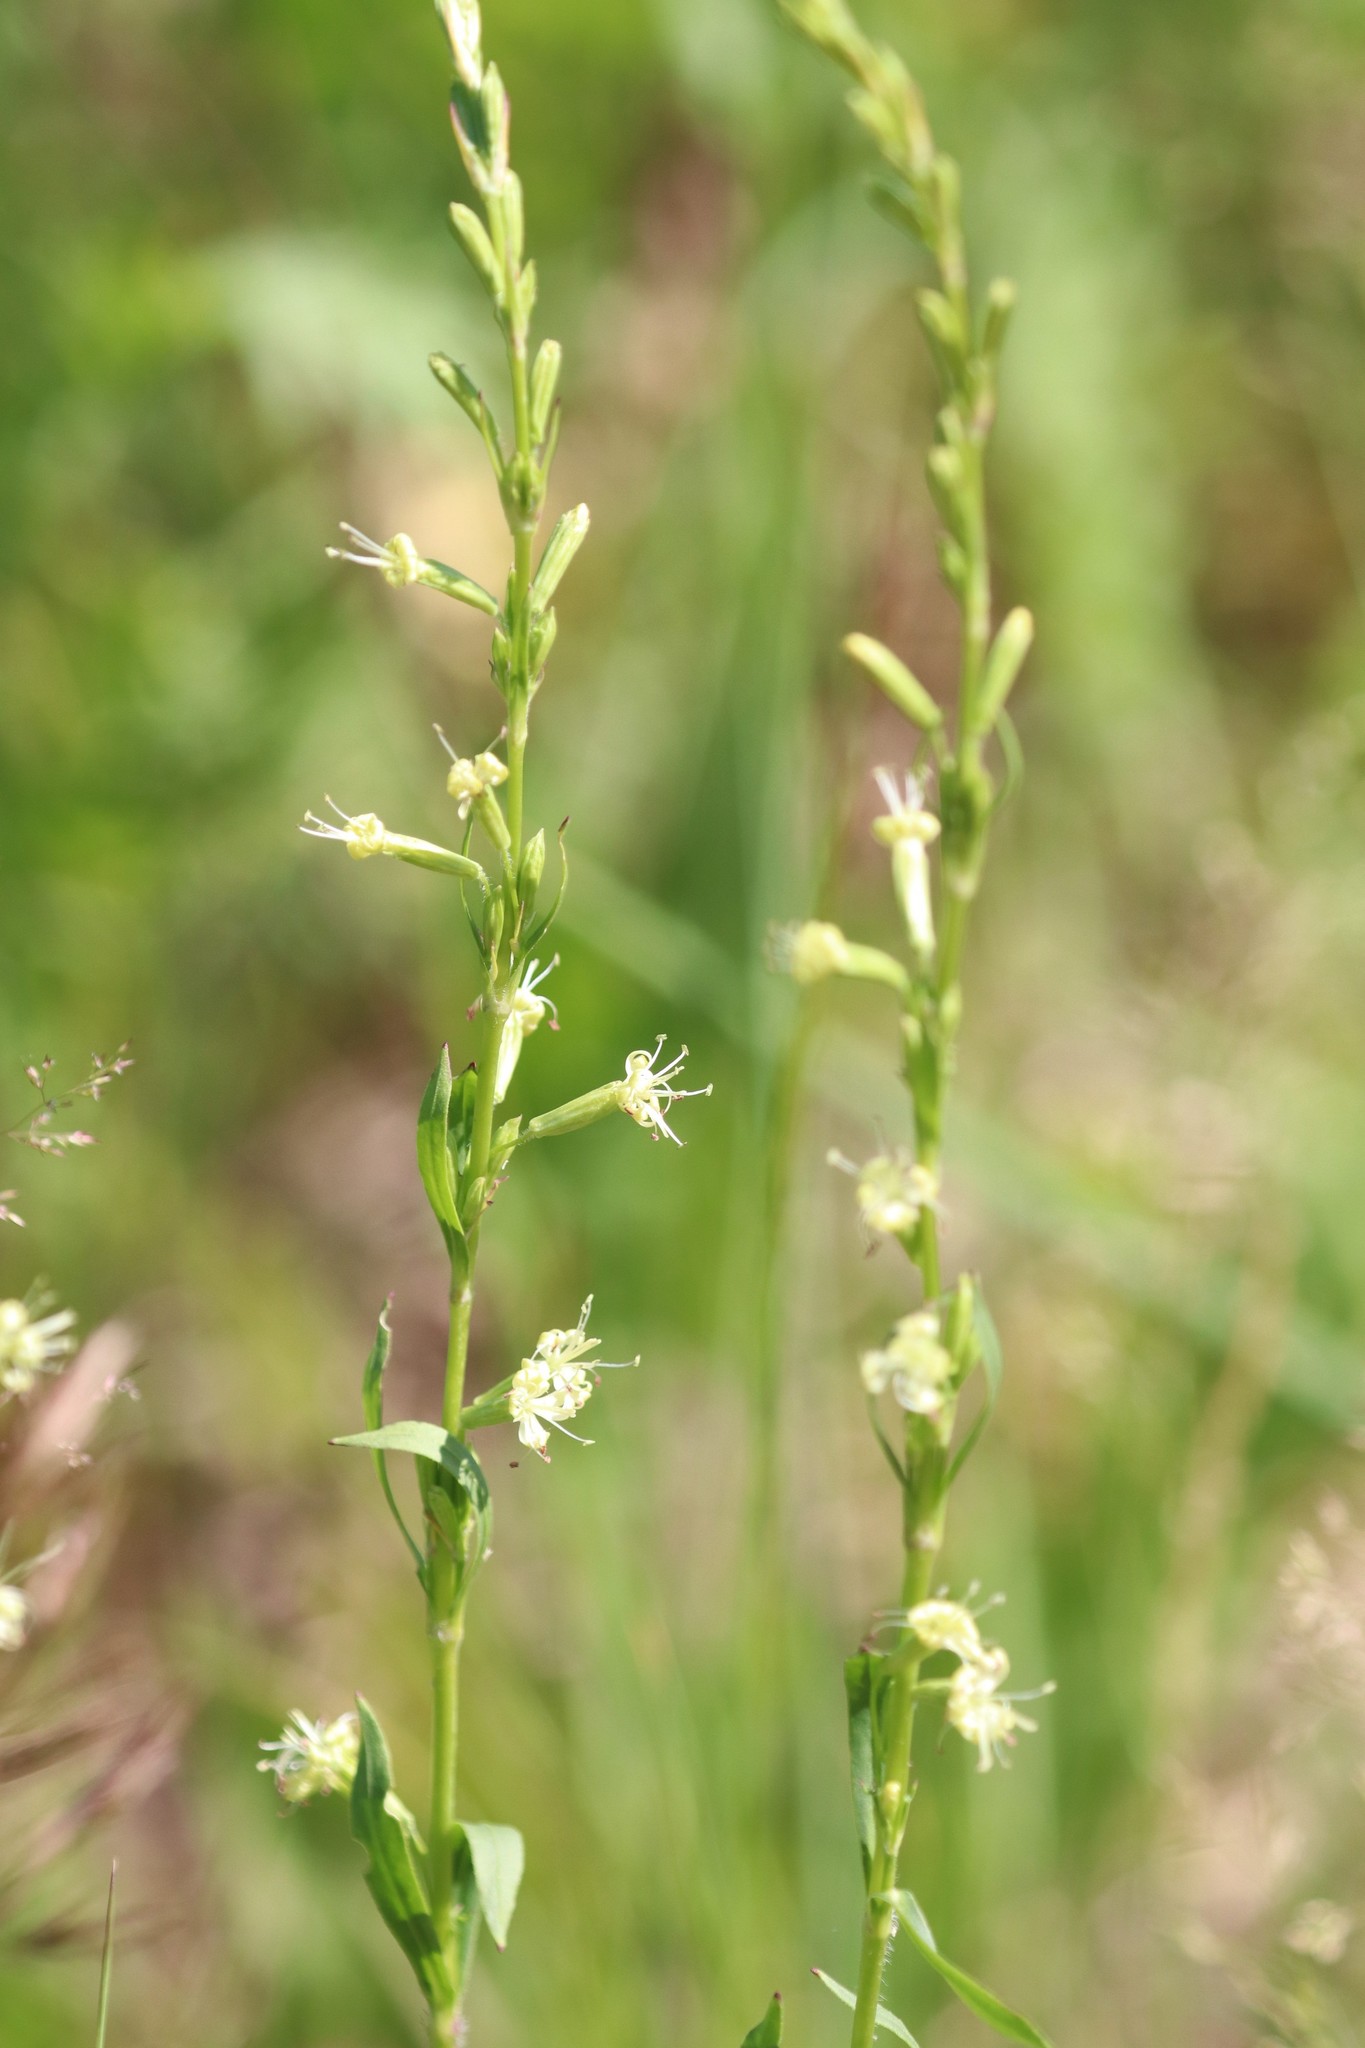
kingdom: Plantae
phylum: Tracheophyta
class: Magnoliopsida
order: Caryophyllales
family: Caryophyllaceae
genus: Silene
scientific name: Silene tatarica
